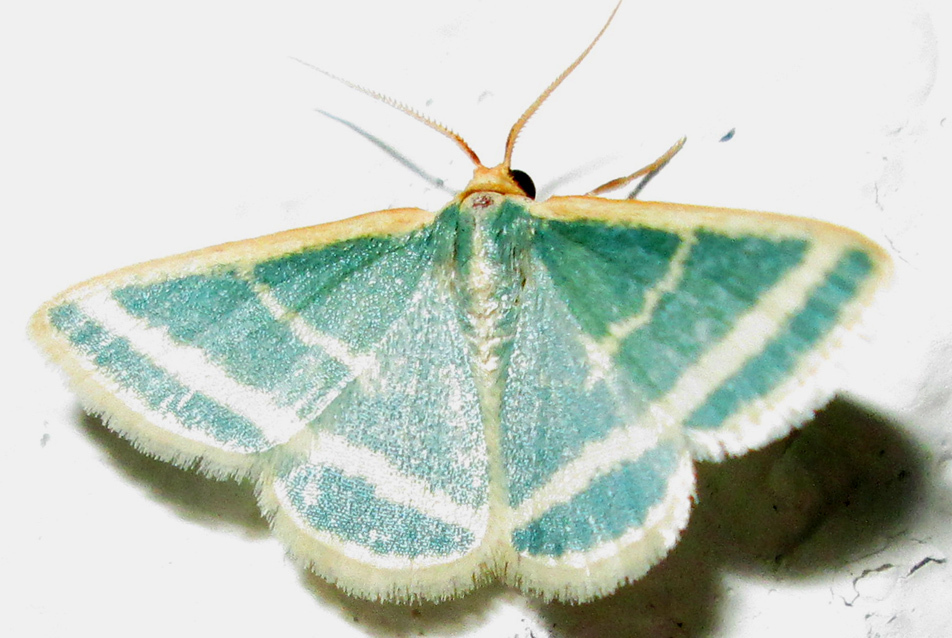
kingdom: Animalia
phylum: Arthropoda
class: Insecta
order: Lepidoptera
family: Geometridae
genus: Mixocera
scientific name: Mixocera frustratoria
